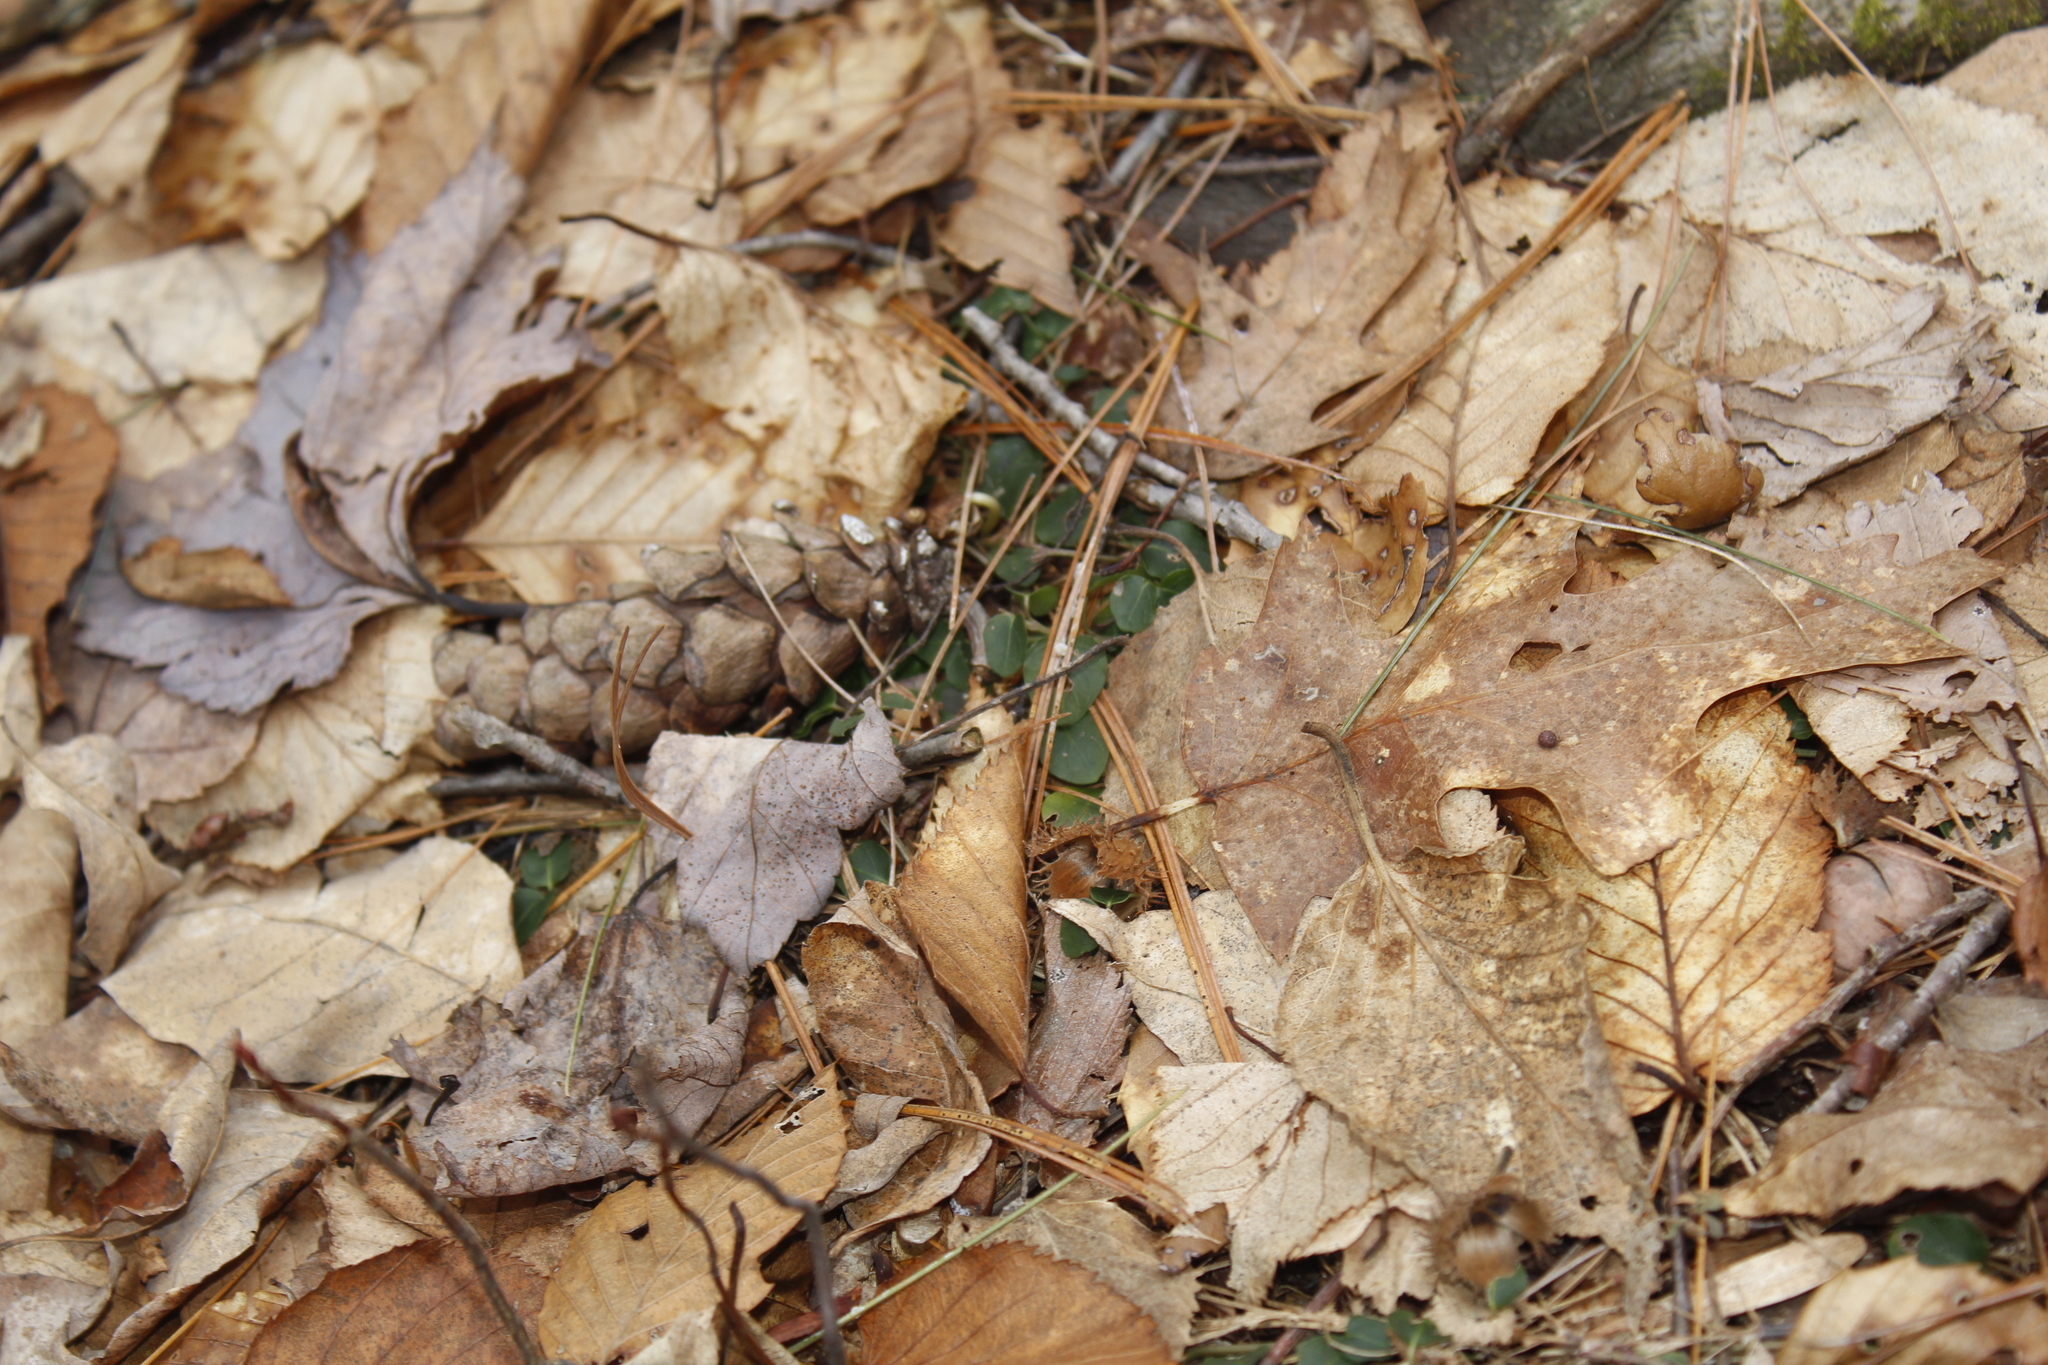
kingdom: Plantae
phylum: Tracheophyta
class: Magnoliopsida
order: Gentianales
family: Rubiaceae
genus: Mitchella
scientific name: Mitchella repens
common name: Partridge-berry
